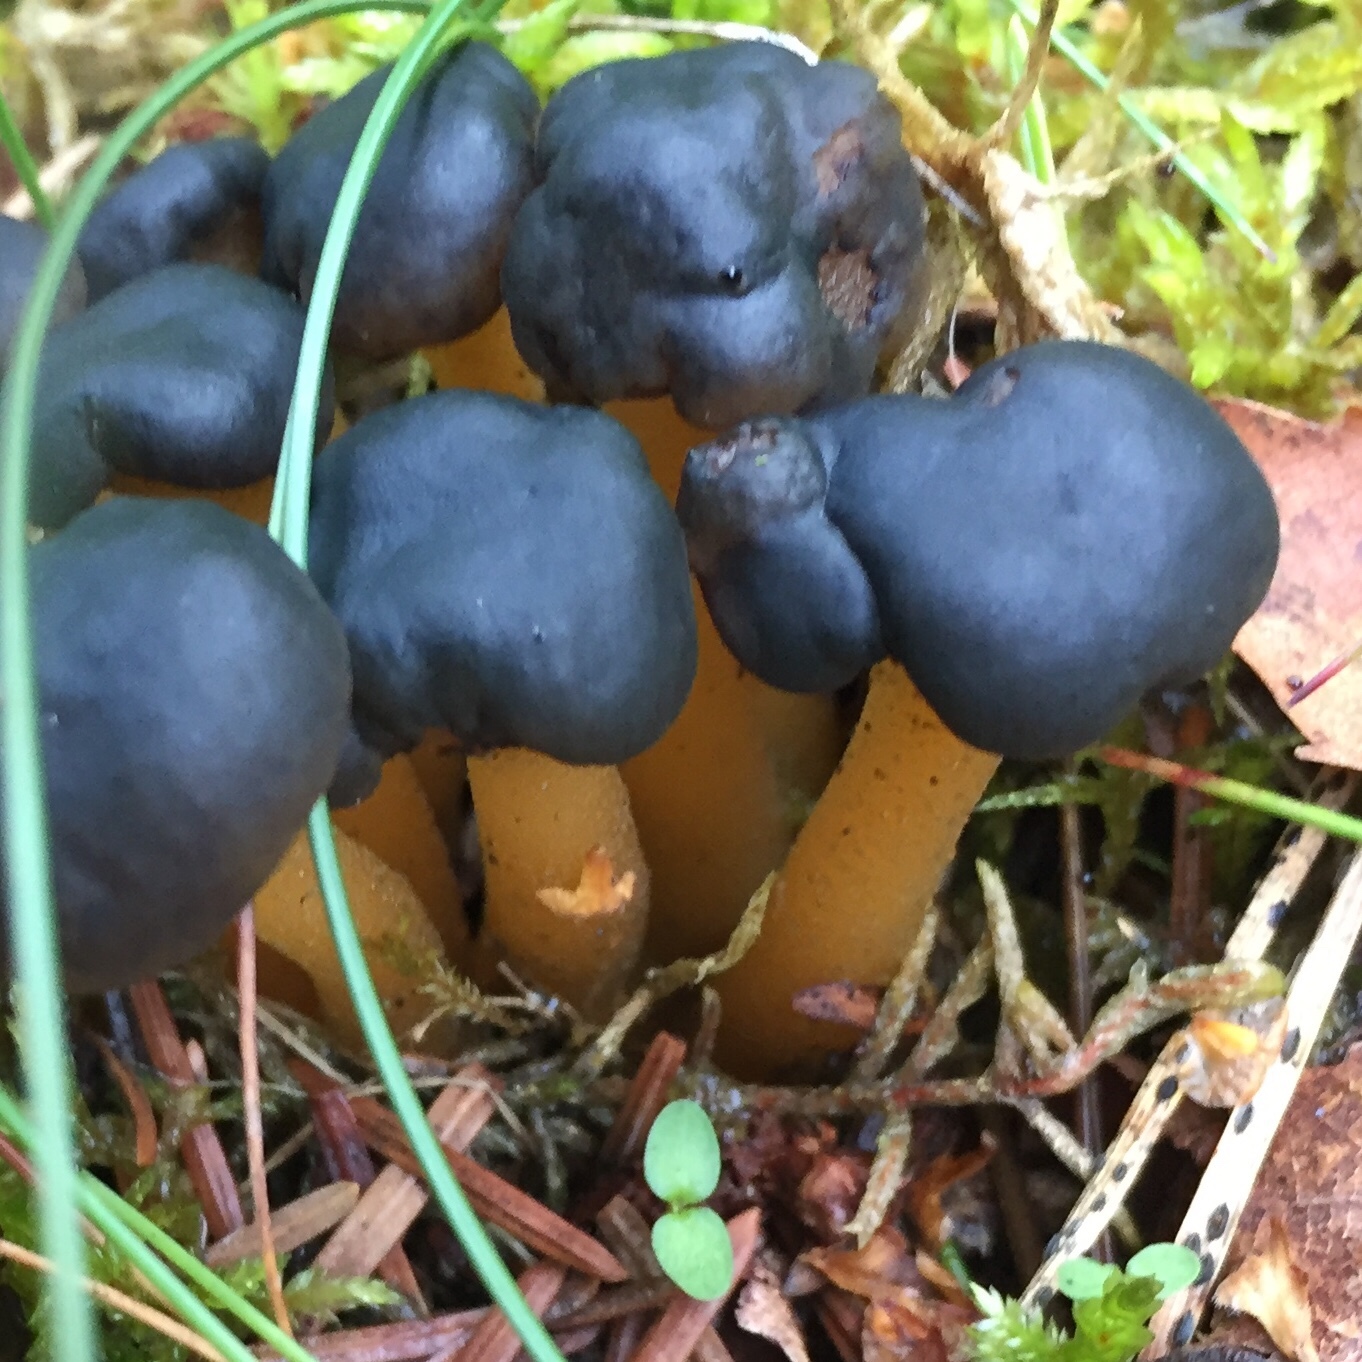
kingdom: Fungi
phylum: Ascomycota
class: Leotiomycetes
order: Leotiales
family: Leotiaceae
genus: Leotia
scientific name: Leotia lubrica
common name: Jellybaby
